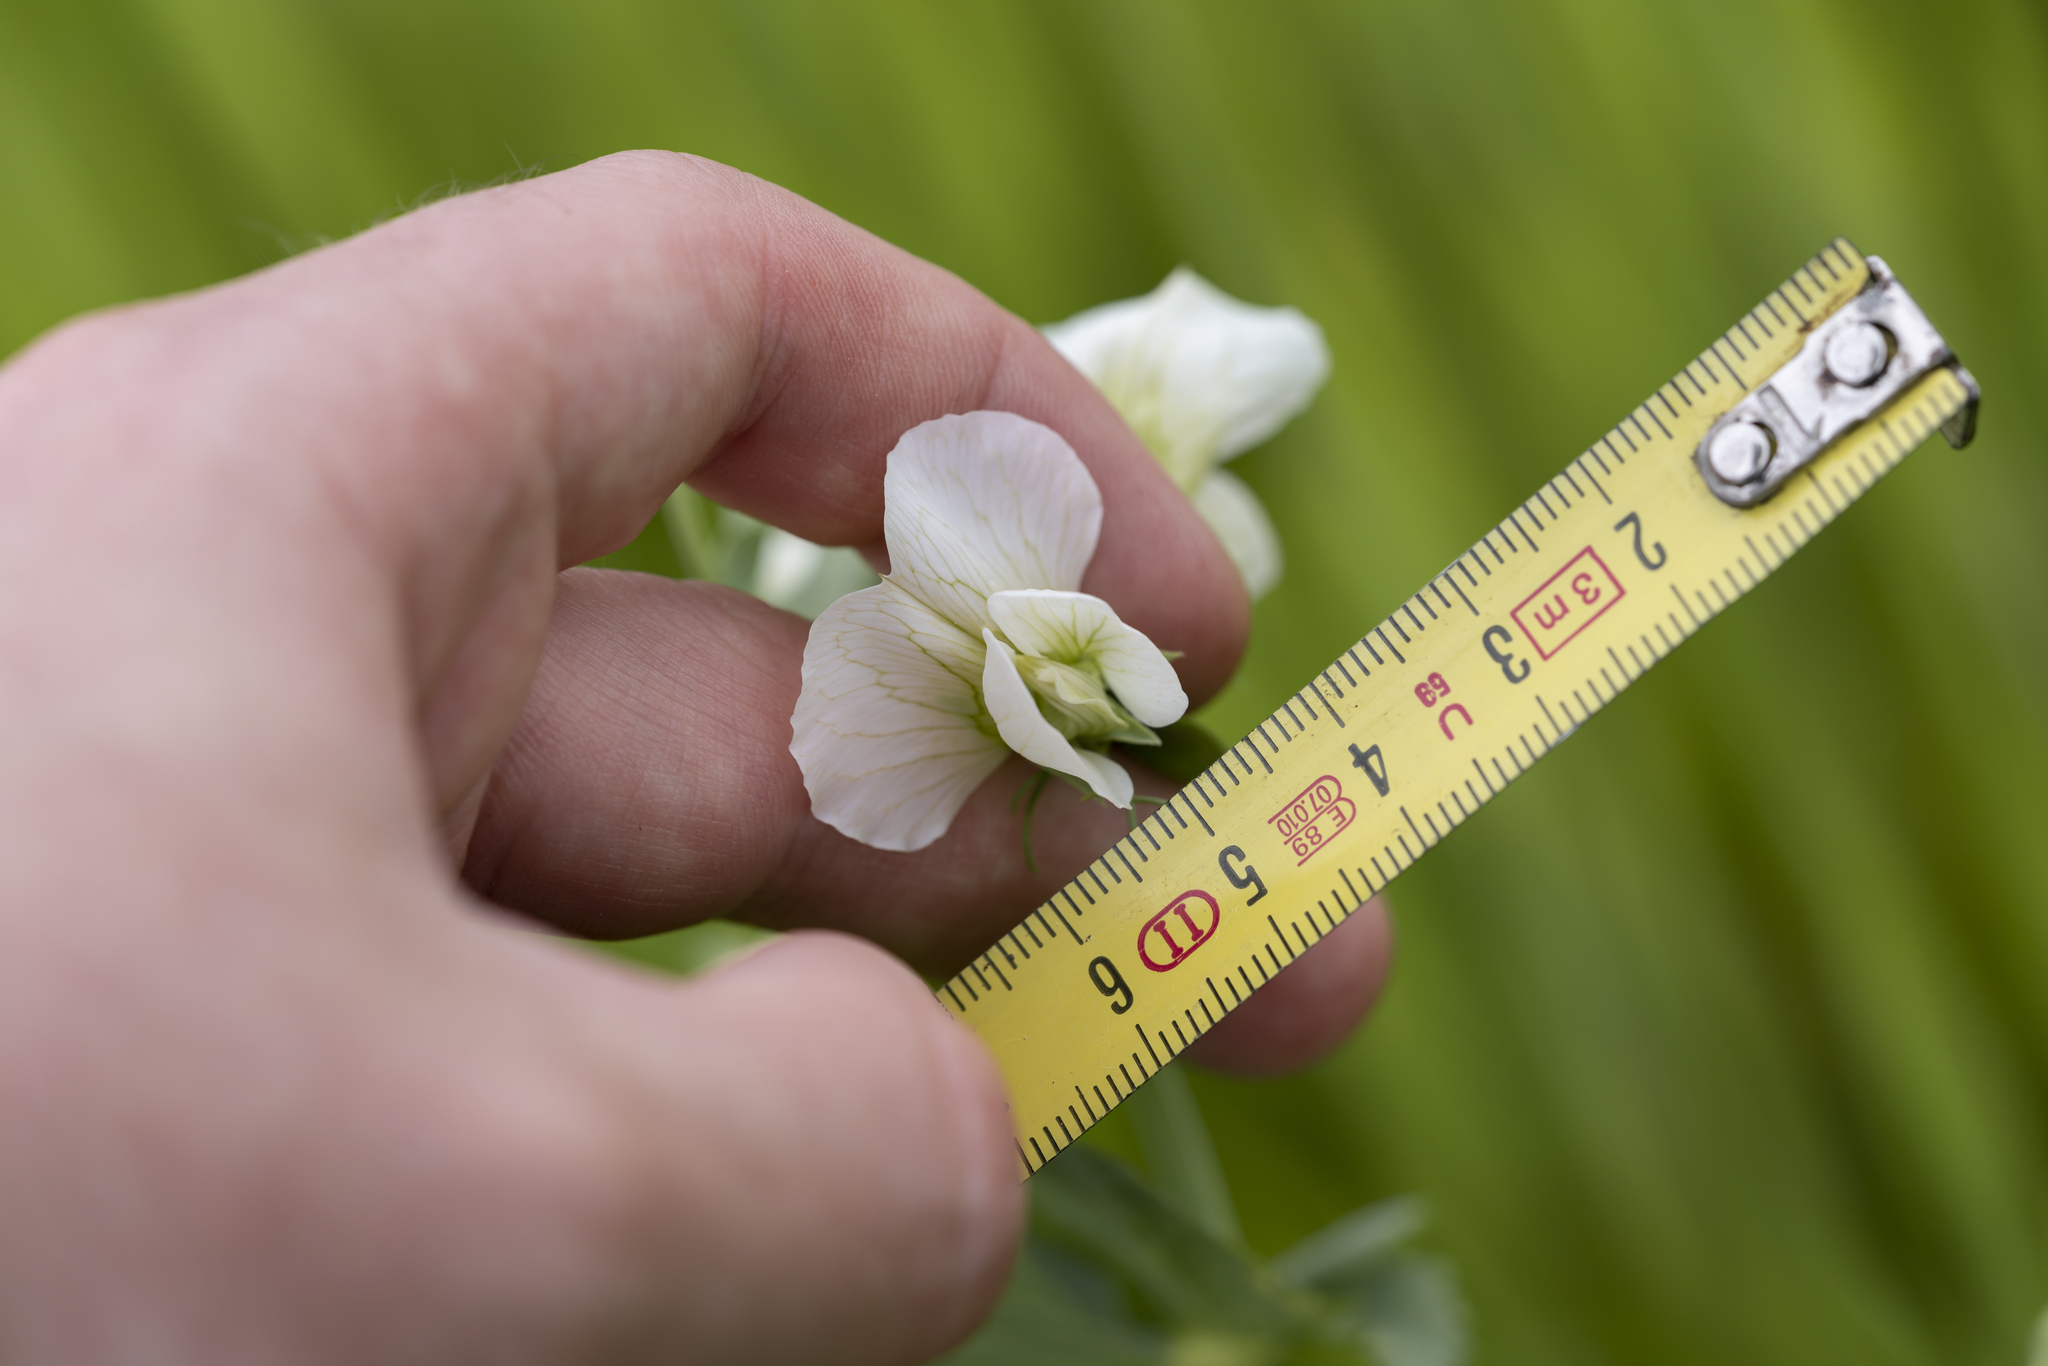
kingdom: Plantae
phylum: Tracheophyta
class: Magnoliopsida
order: Fabales
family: Fabaceae
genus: Lathyrus
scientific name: Lathyrus oleraceus
